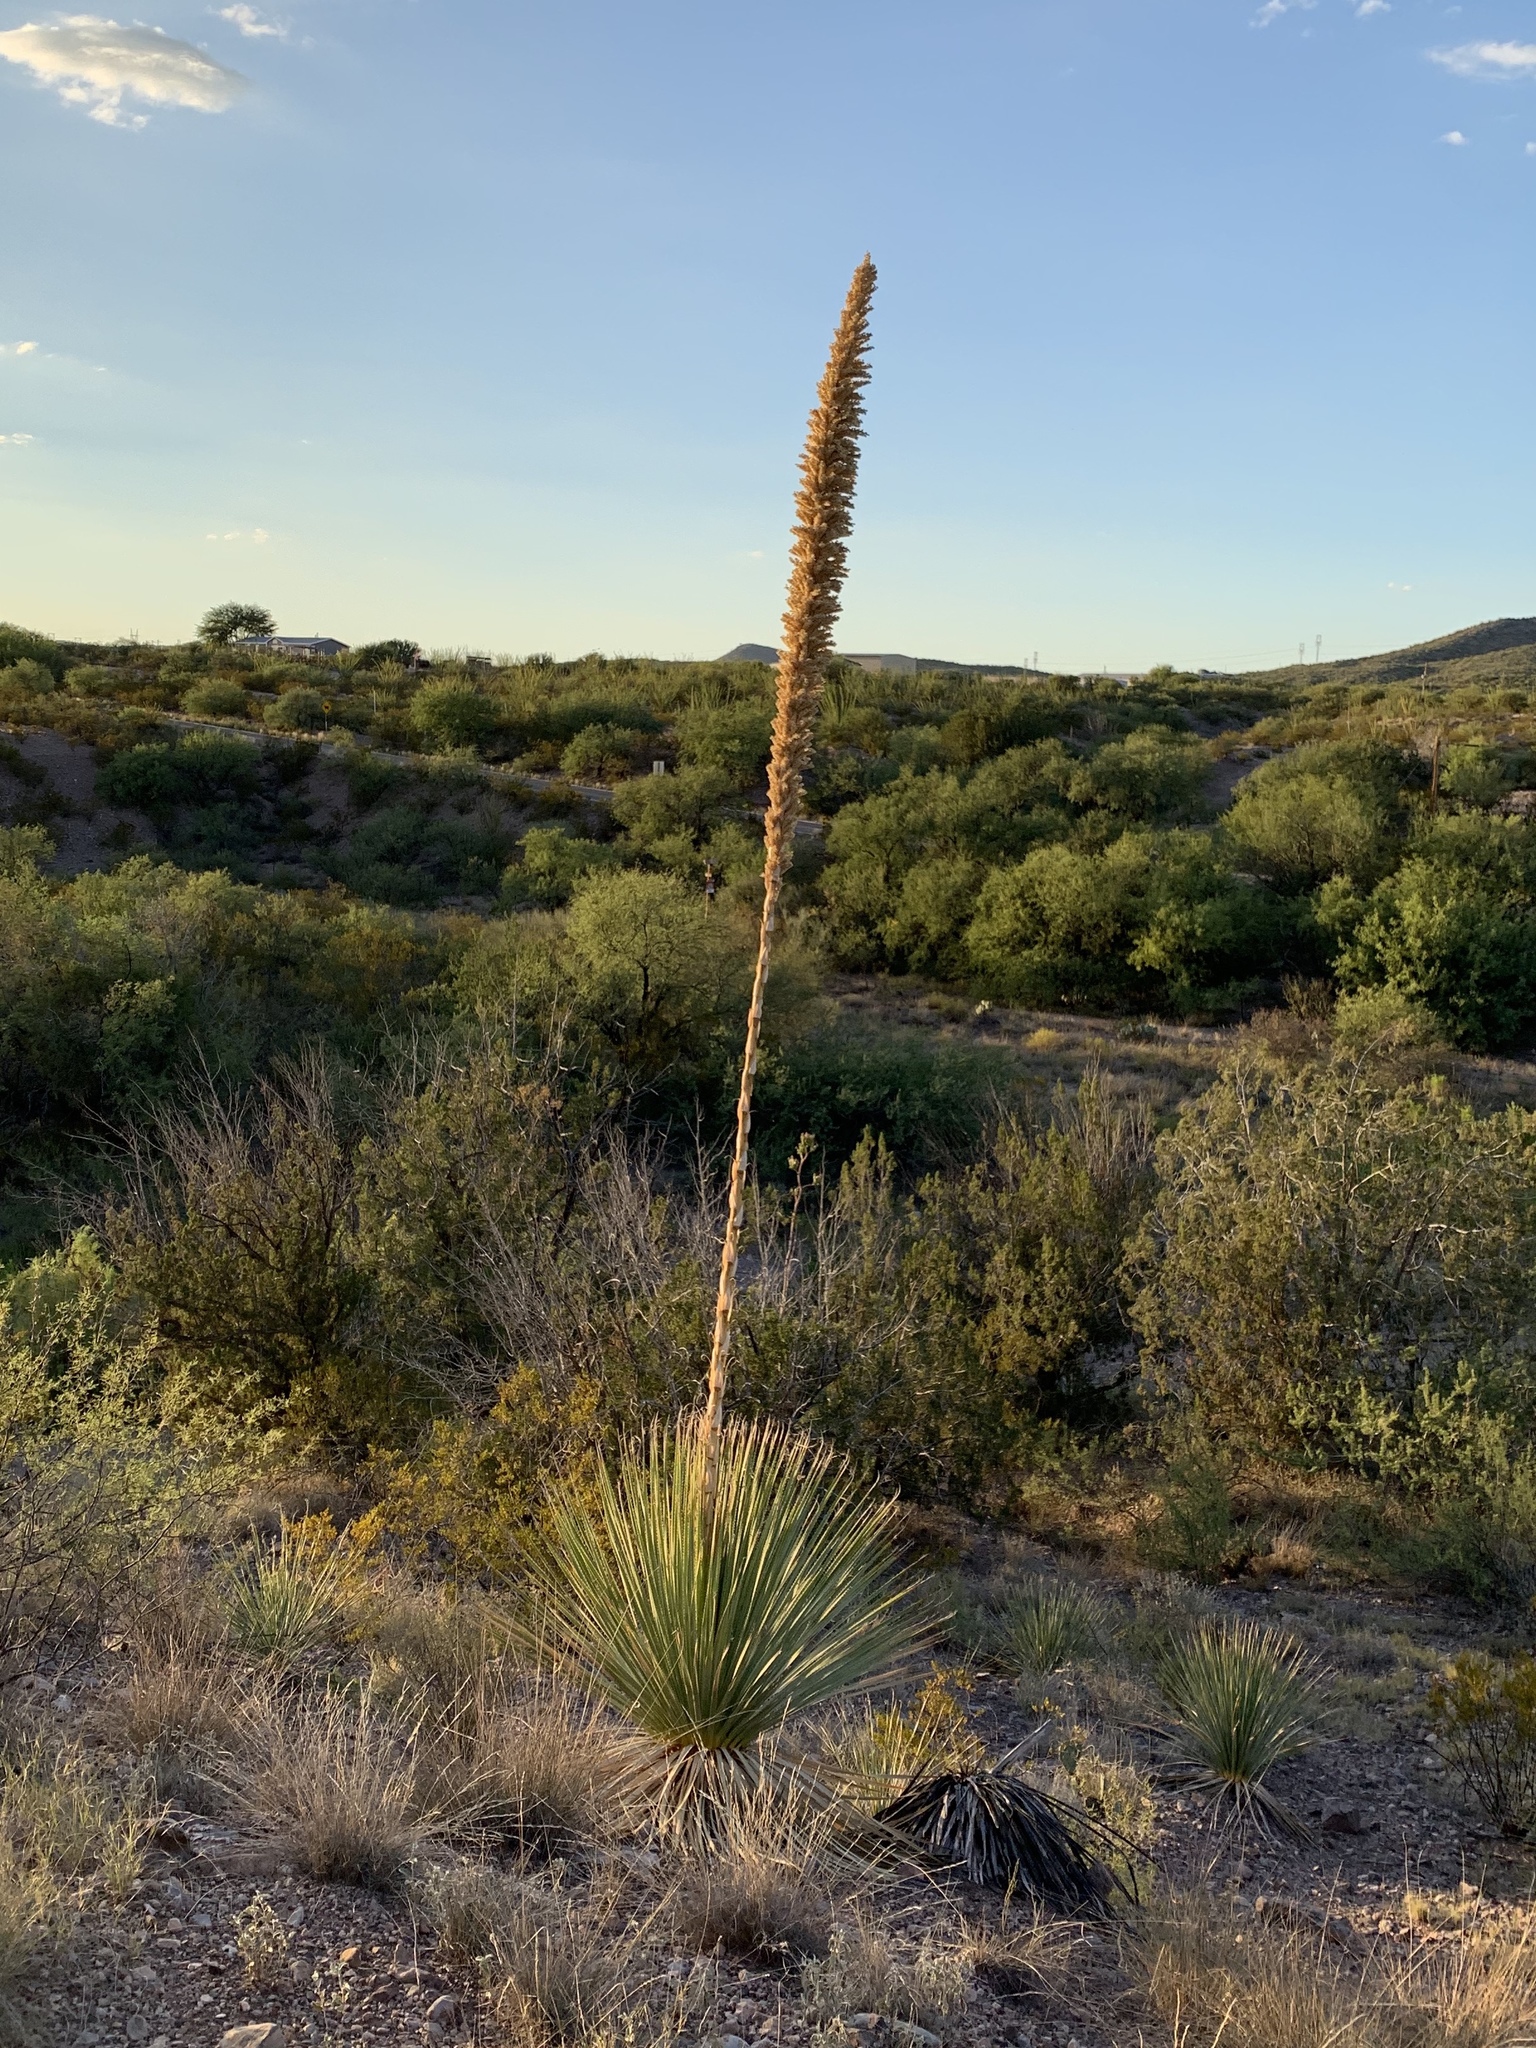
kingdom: Plantae
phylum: Tracheophyta
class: Liliopsida
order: Asparagales
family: Asparagaceae
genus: Dasylirion
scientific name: Dasylirion wheeleri
